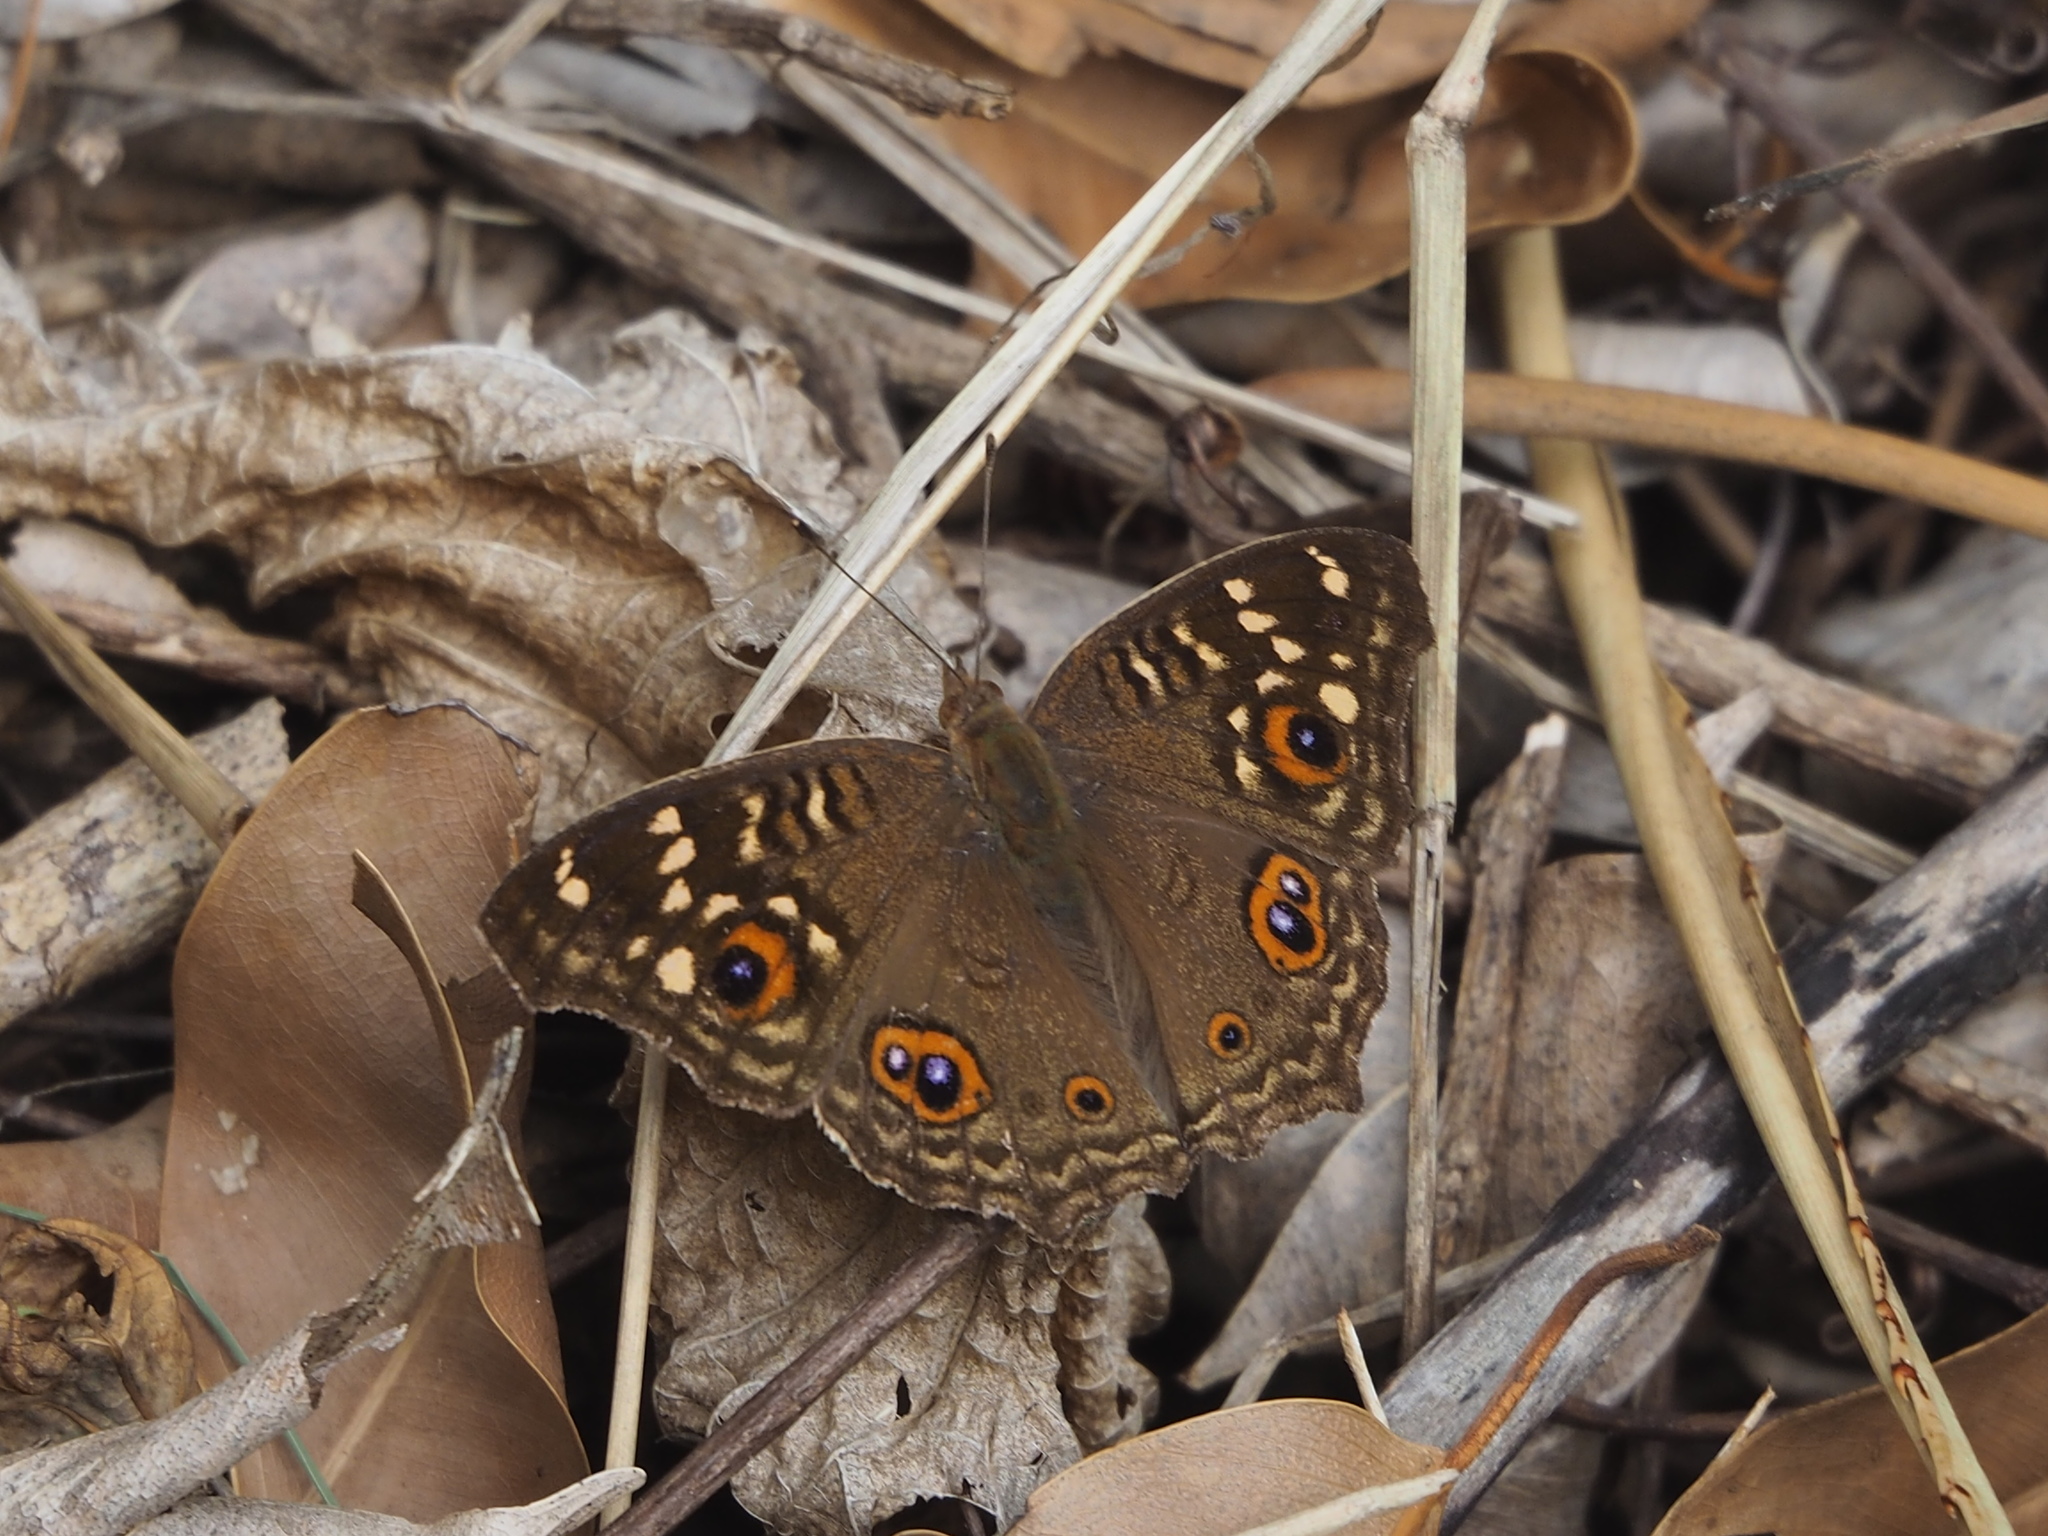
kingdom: Animalia
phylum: Arthropoda
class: Insecta
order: Lepidoptera
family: Nymphalidae
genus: Junonia
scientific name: Junonia lemonias
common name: Lemon pansy
